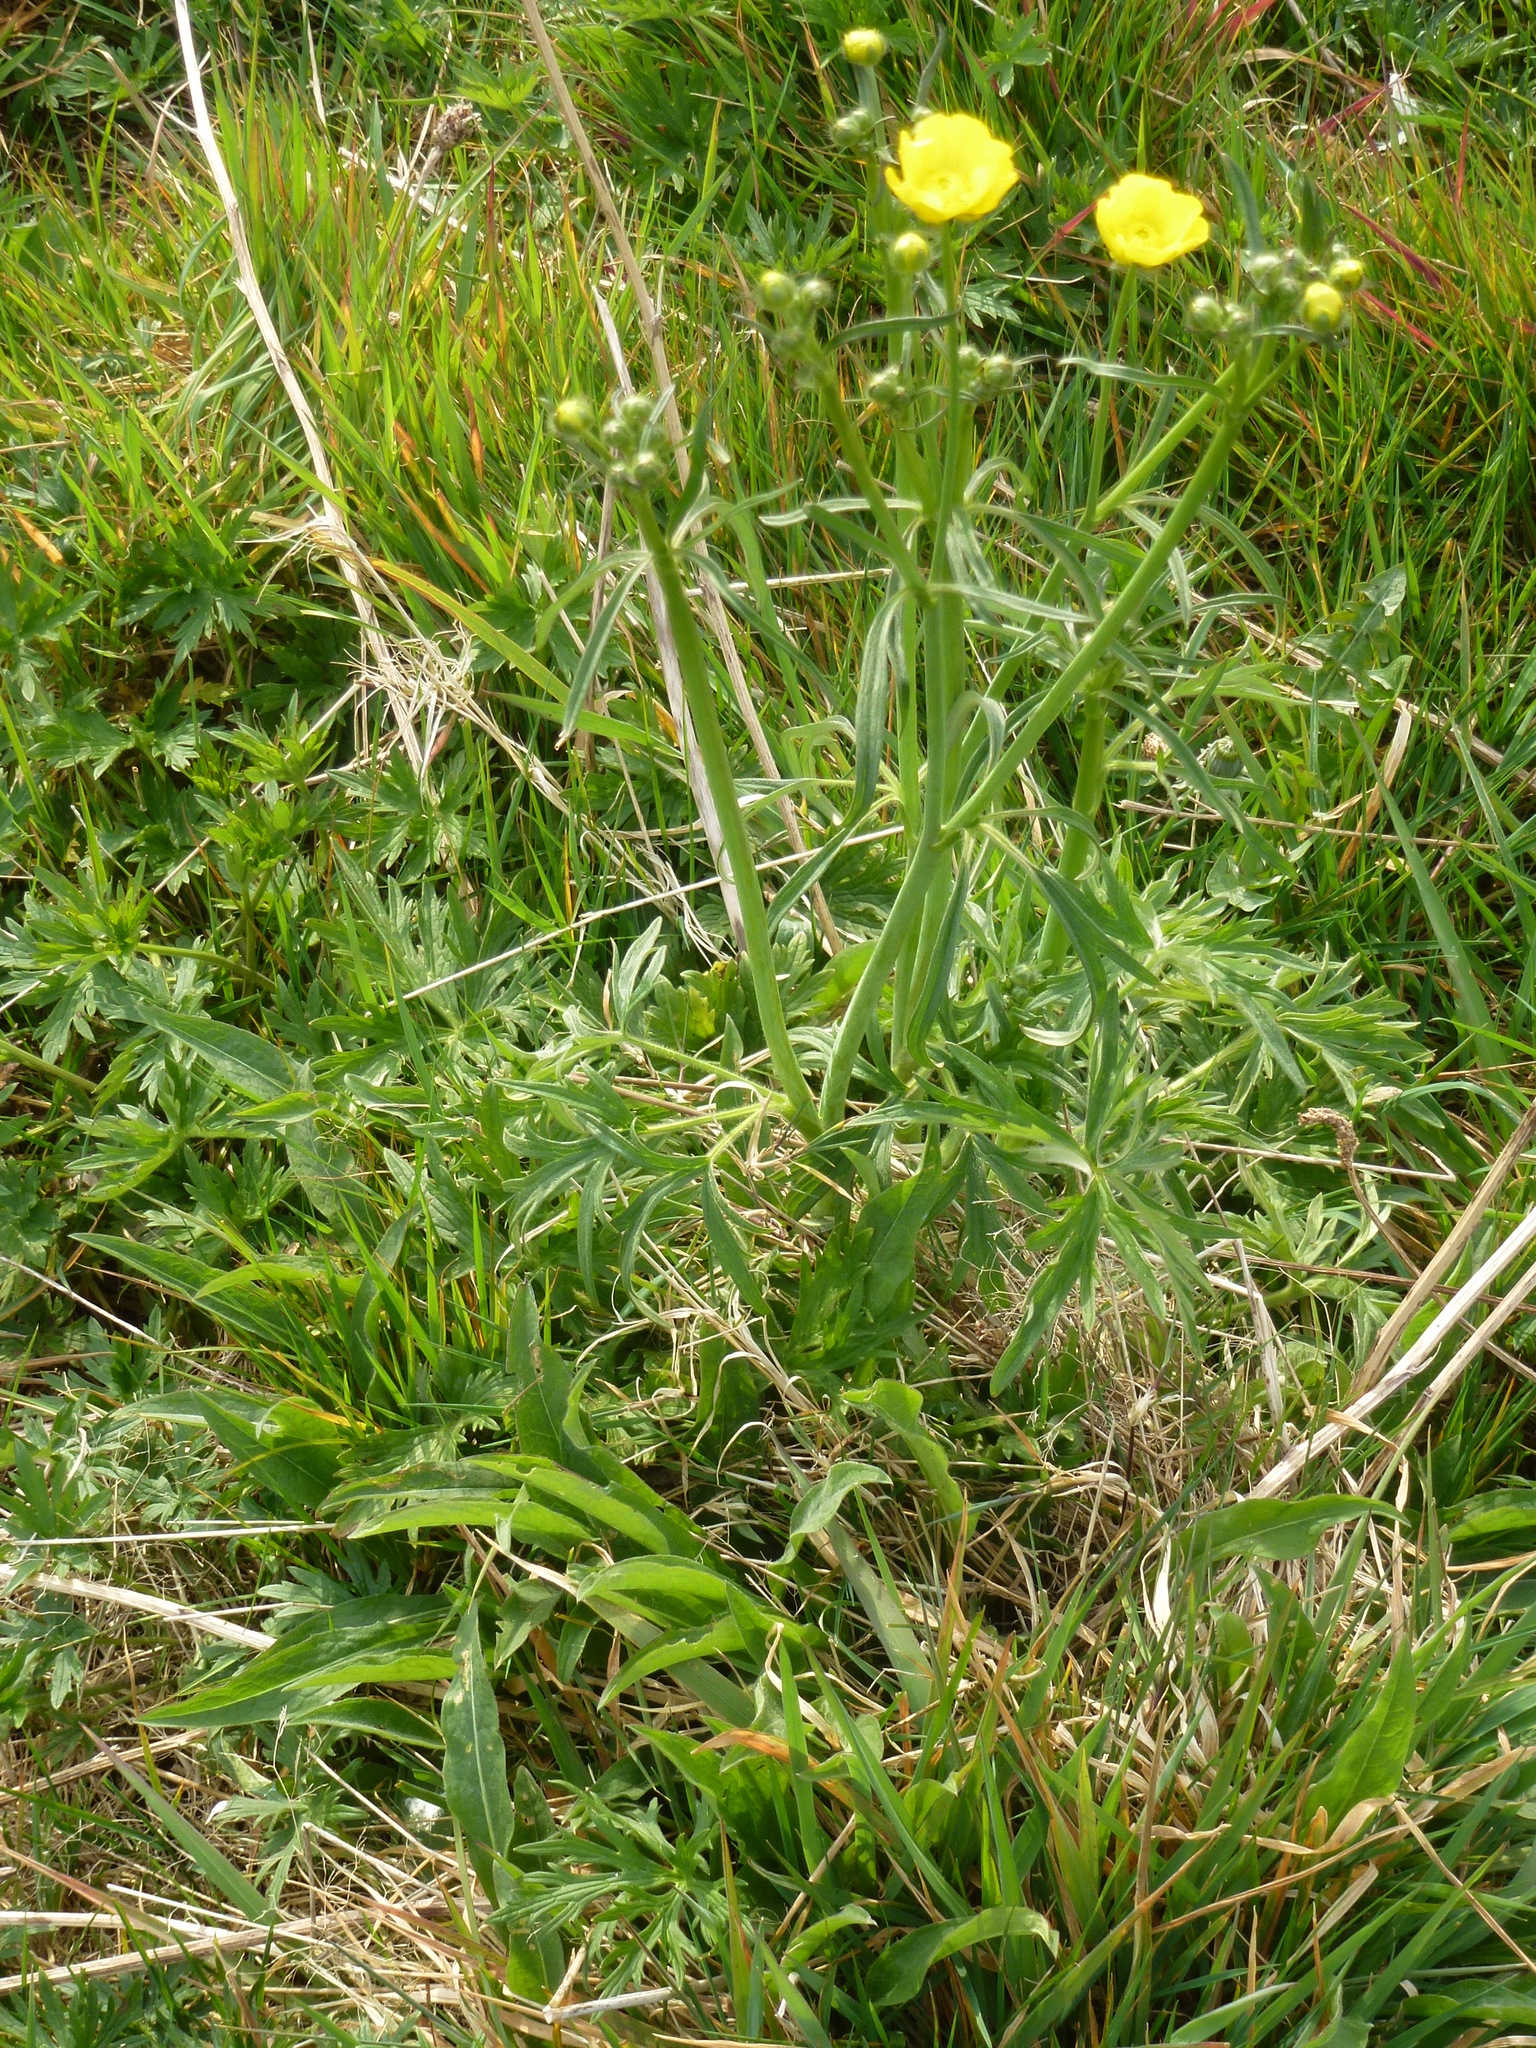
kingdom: Plantae
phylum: Tracheophyta
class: Magnoliopsida
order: Ranunculales
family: Ranunculaceae
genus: Ranunculus
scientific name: Ranunculus acris
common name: Meadow buttercup
